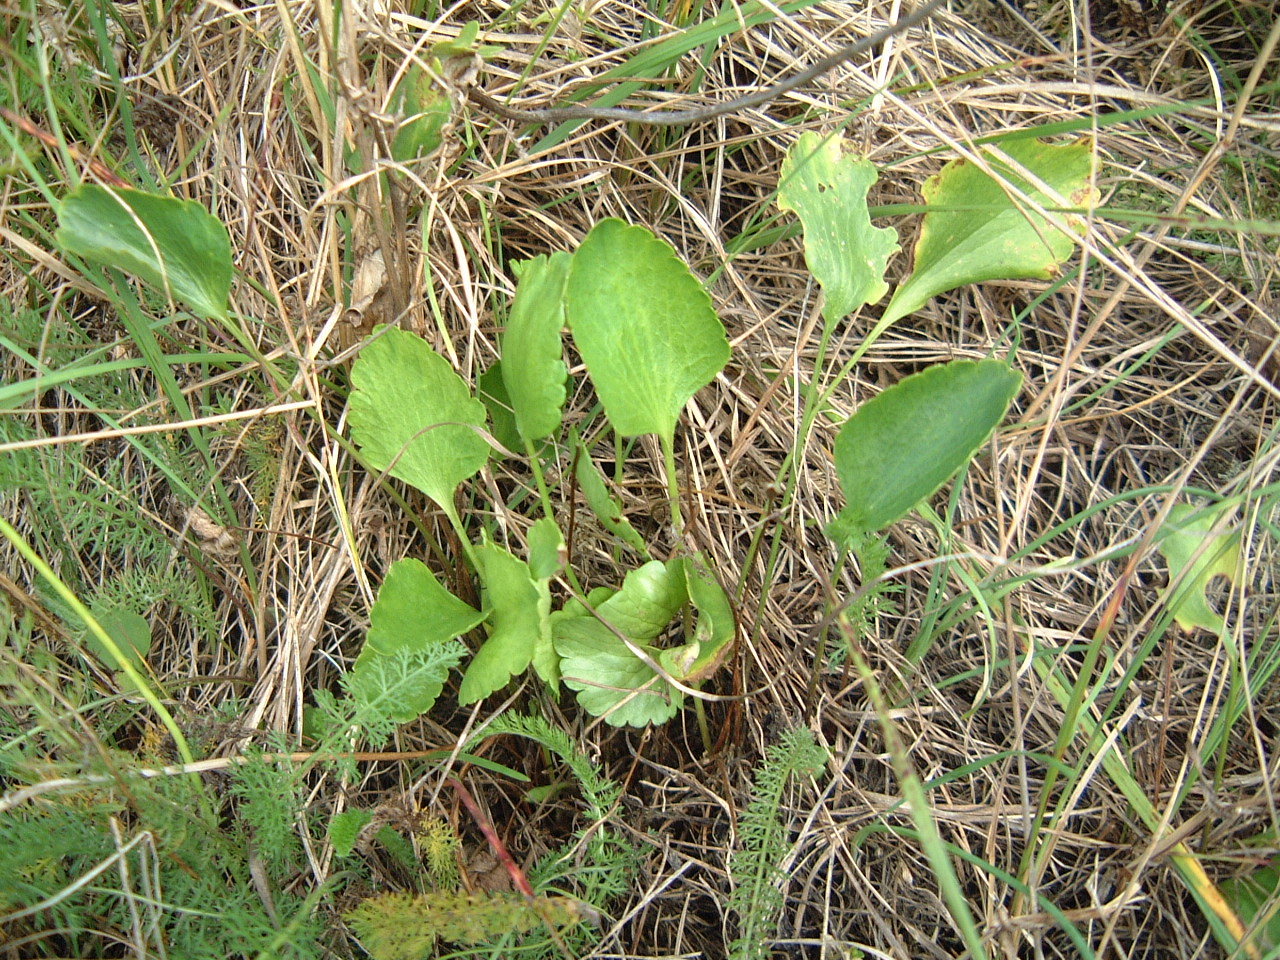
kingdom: Plantae
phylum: Tracheophyta
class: Magnoliopsida
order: Ranunculales
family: Ranunculaceae
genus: Ranunculus
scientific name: Ranunculus rhomboideus
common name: Prairie buttercup
